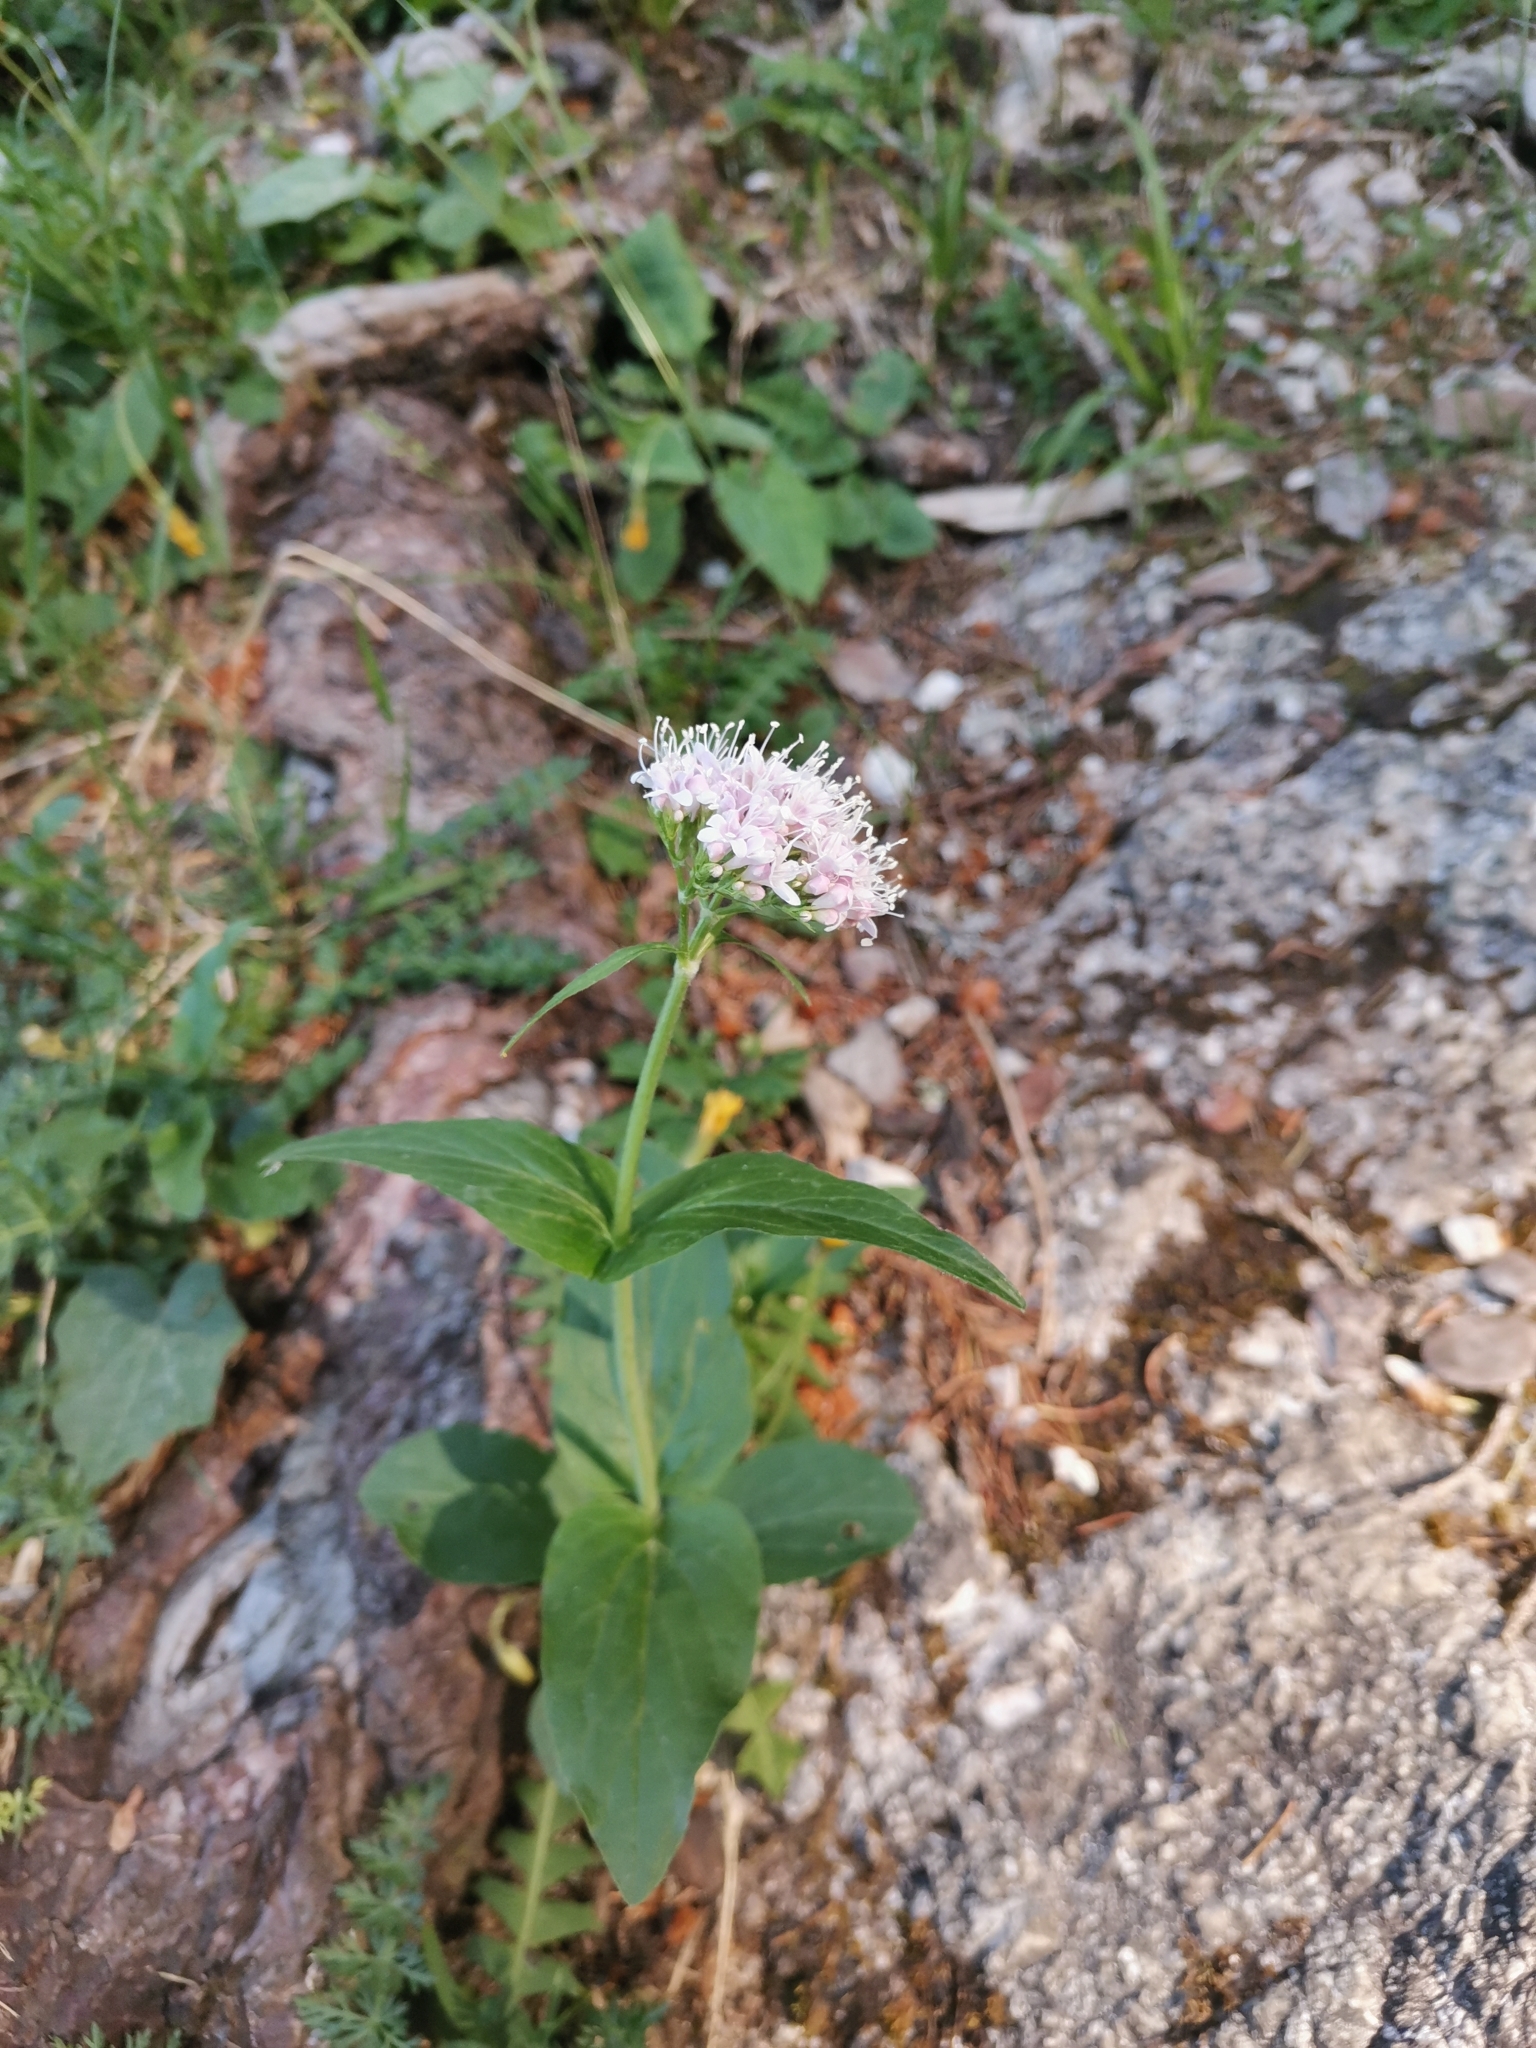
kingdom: Plantae
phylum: Tracheophyta
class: Magnoliopsida
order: Dipsacales
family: Caprifoliaceae
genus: Valeriana
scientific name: Valeriana montana
